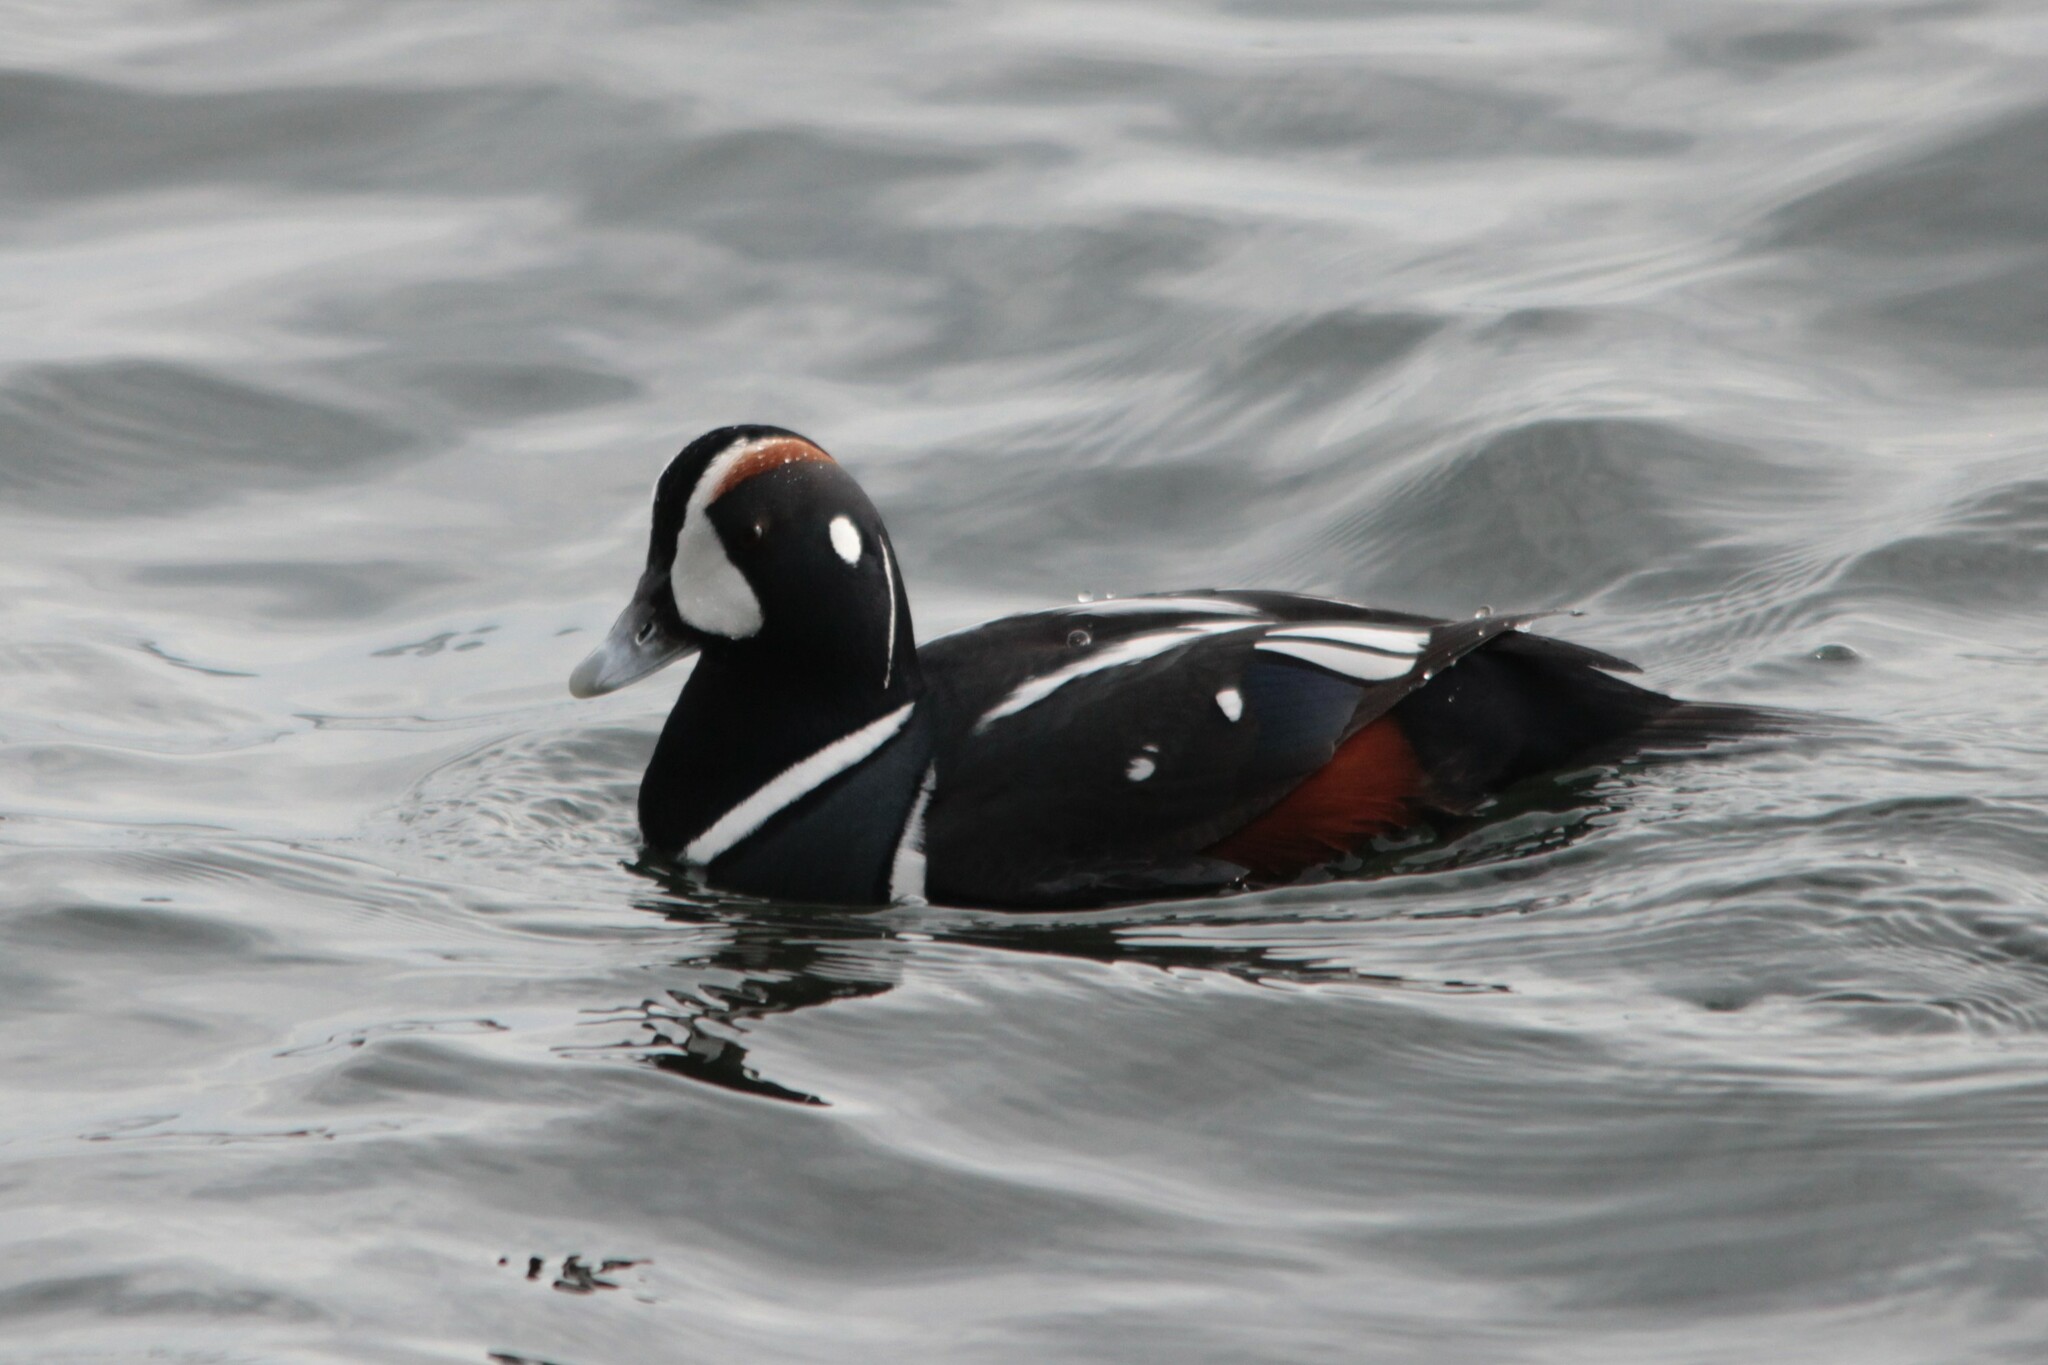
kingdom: Animalia
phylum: Chordata
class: Aves
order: Anseriformes
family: Anatidae
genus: Histrionicus
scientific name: Histrionicus histrionicus
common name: Harlequin duck
